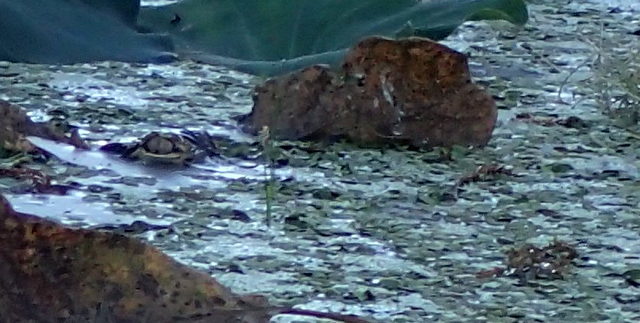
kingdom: Animalia
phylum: Chordata
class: Crocodylia
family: Alligatoridae
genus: Alligator
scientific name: Alligator mississippiensis
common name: American alligator
